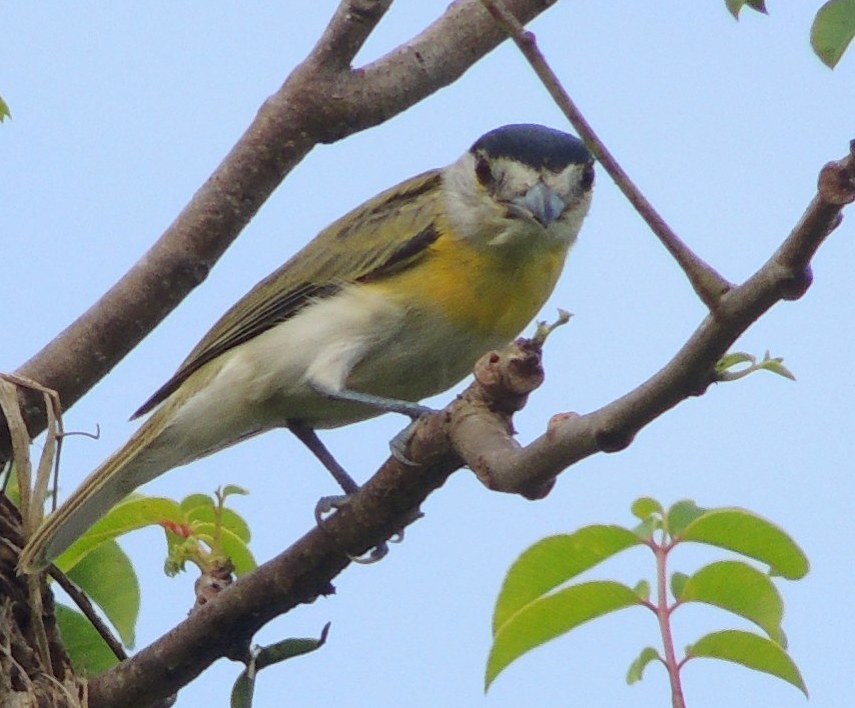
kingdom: Animalia
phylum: Chordata
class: Aves
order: Passeriformes
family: Cotingidae
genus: Pachyramphus
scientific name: Pachyramphus viridis
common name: Green-backed becard
